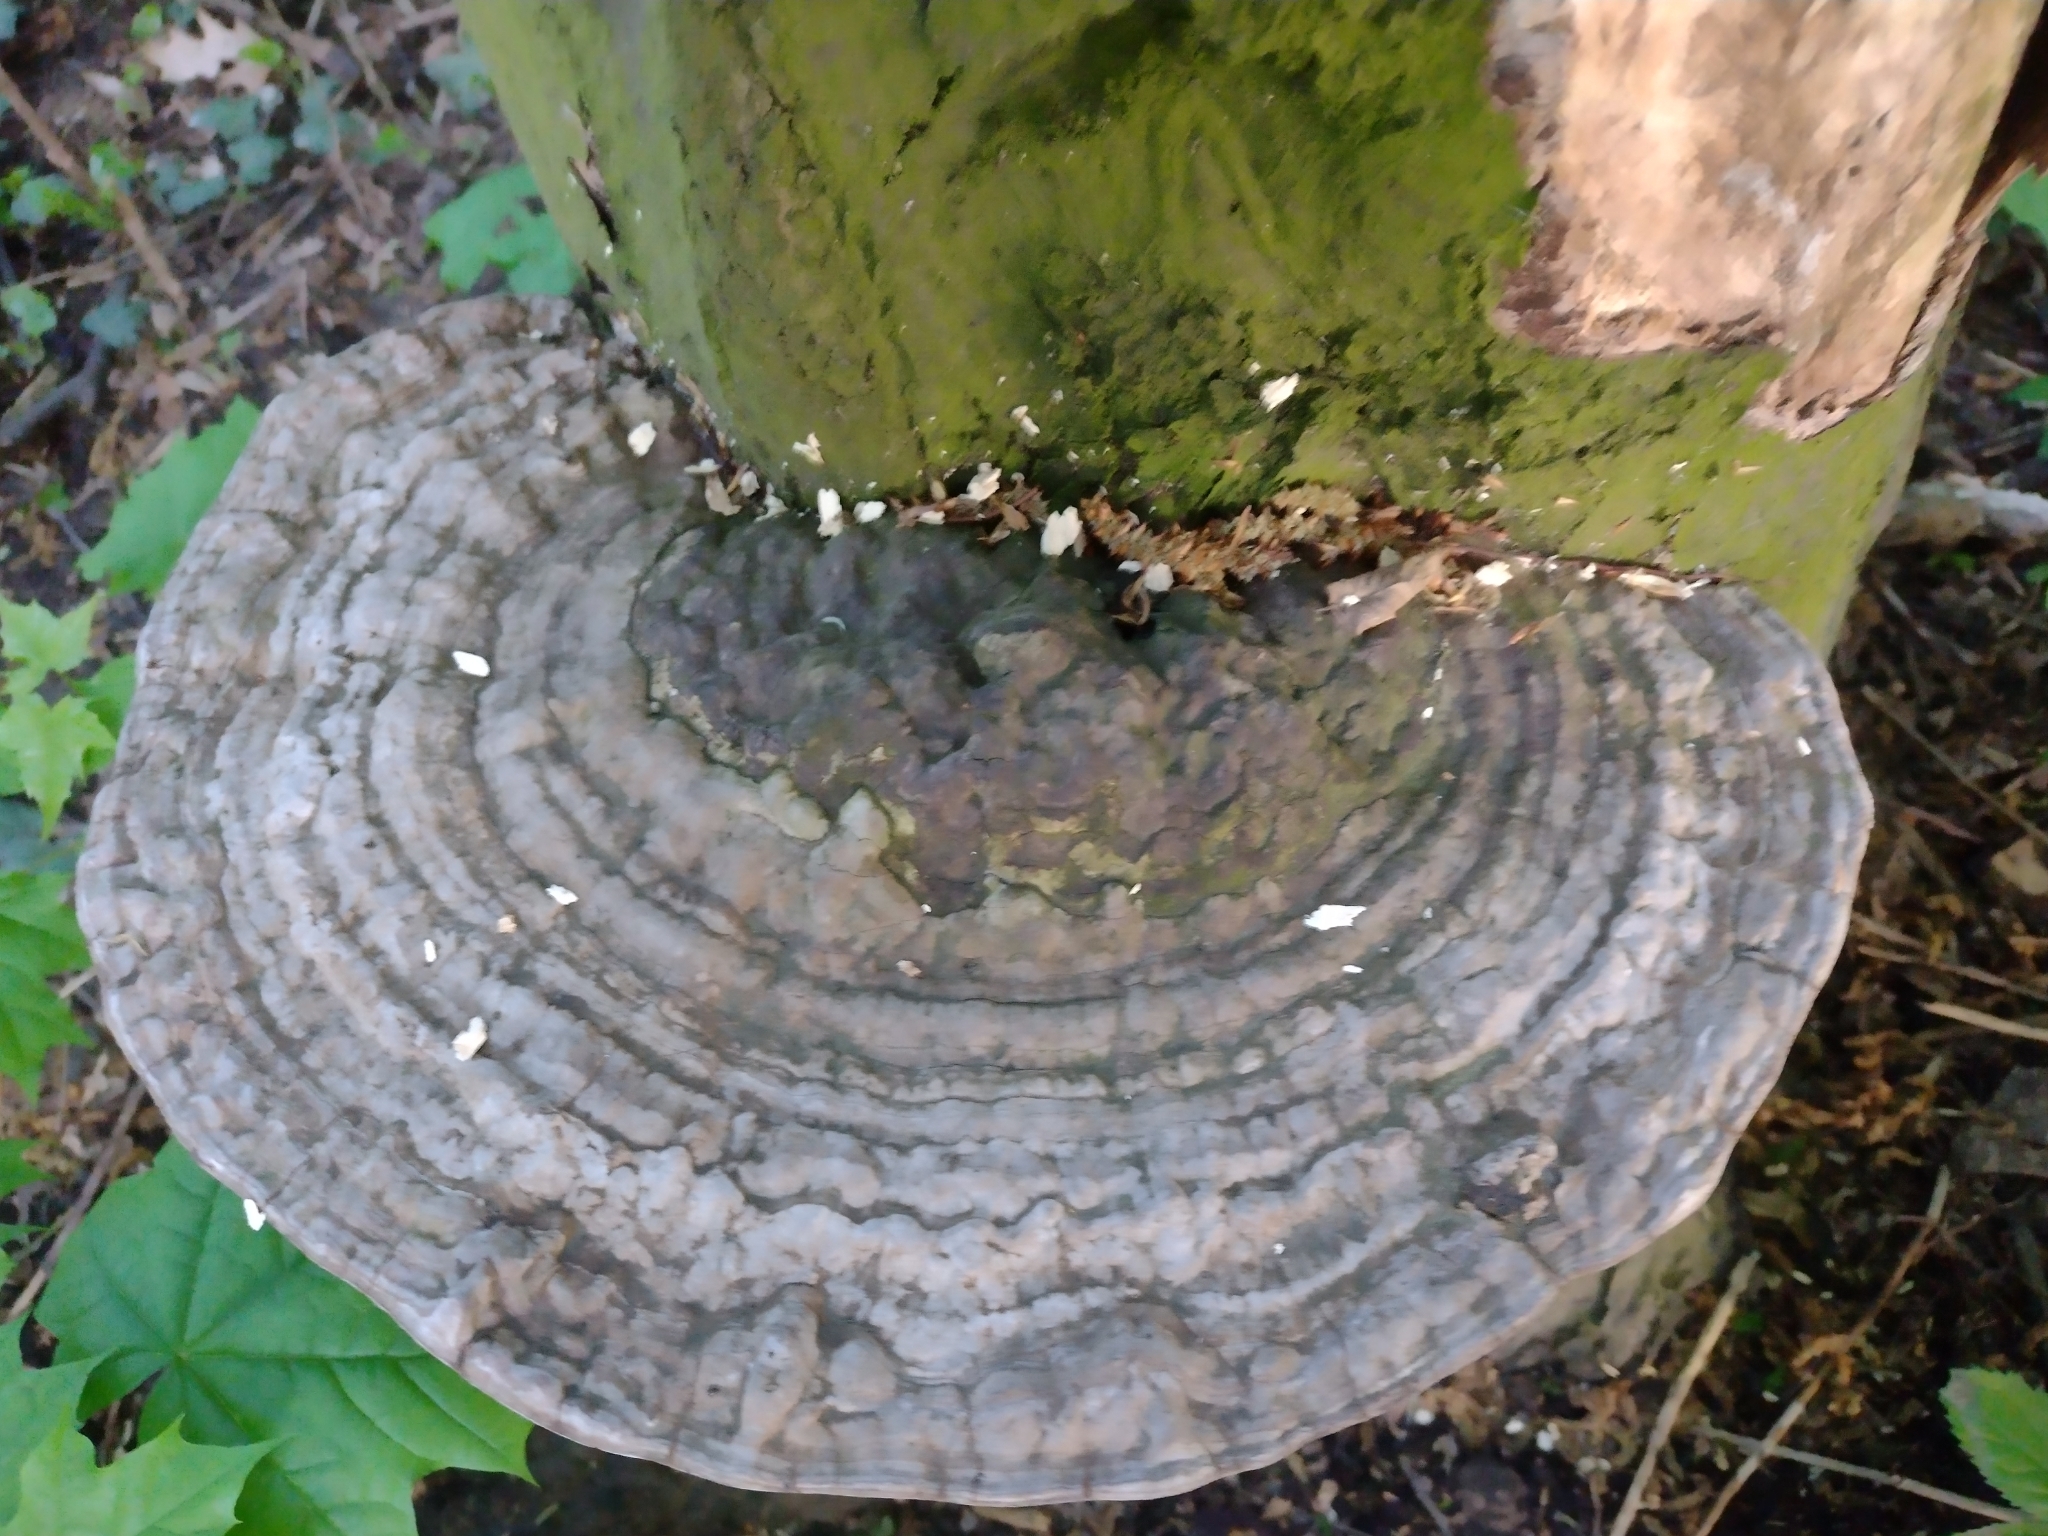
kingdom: Fungi
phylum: Basidiomycota
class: Agaricomycetes
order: Polyporales
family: Polyporaceae
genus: Ganoderma
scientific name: Ganoderma applanatum
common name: Artist's bracket
